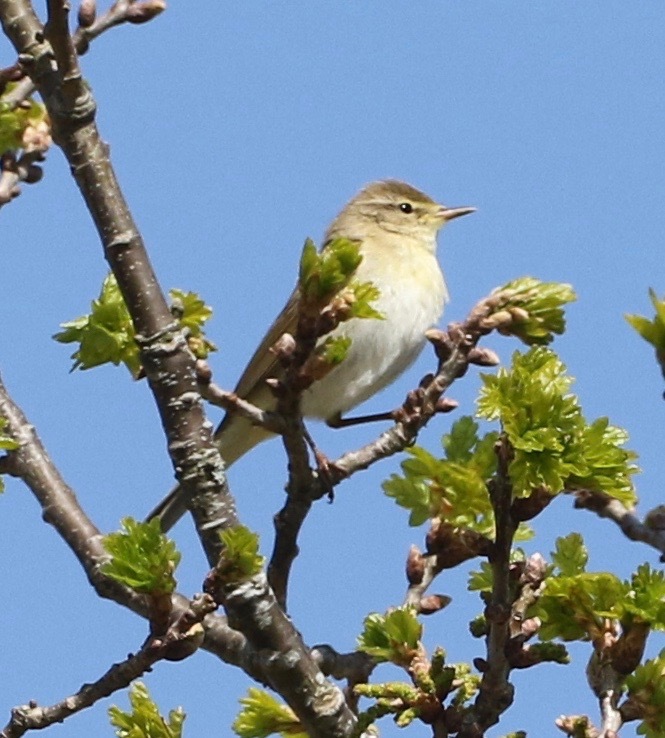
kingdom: Animalia
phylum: Chordata
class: Aves
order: Passeriformes
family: Phylloscopidae
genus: Phylloscopus
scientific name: Phylloscopus trochilus
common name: Willow warbler
